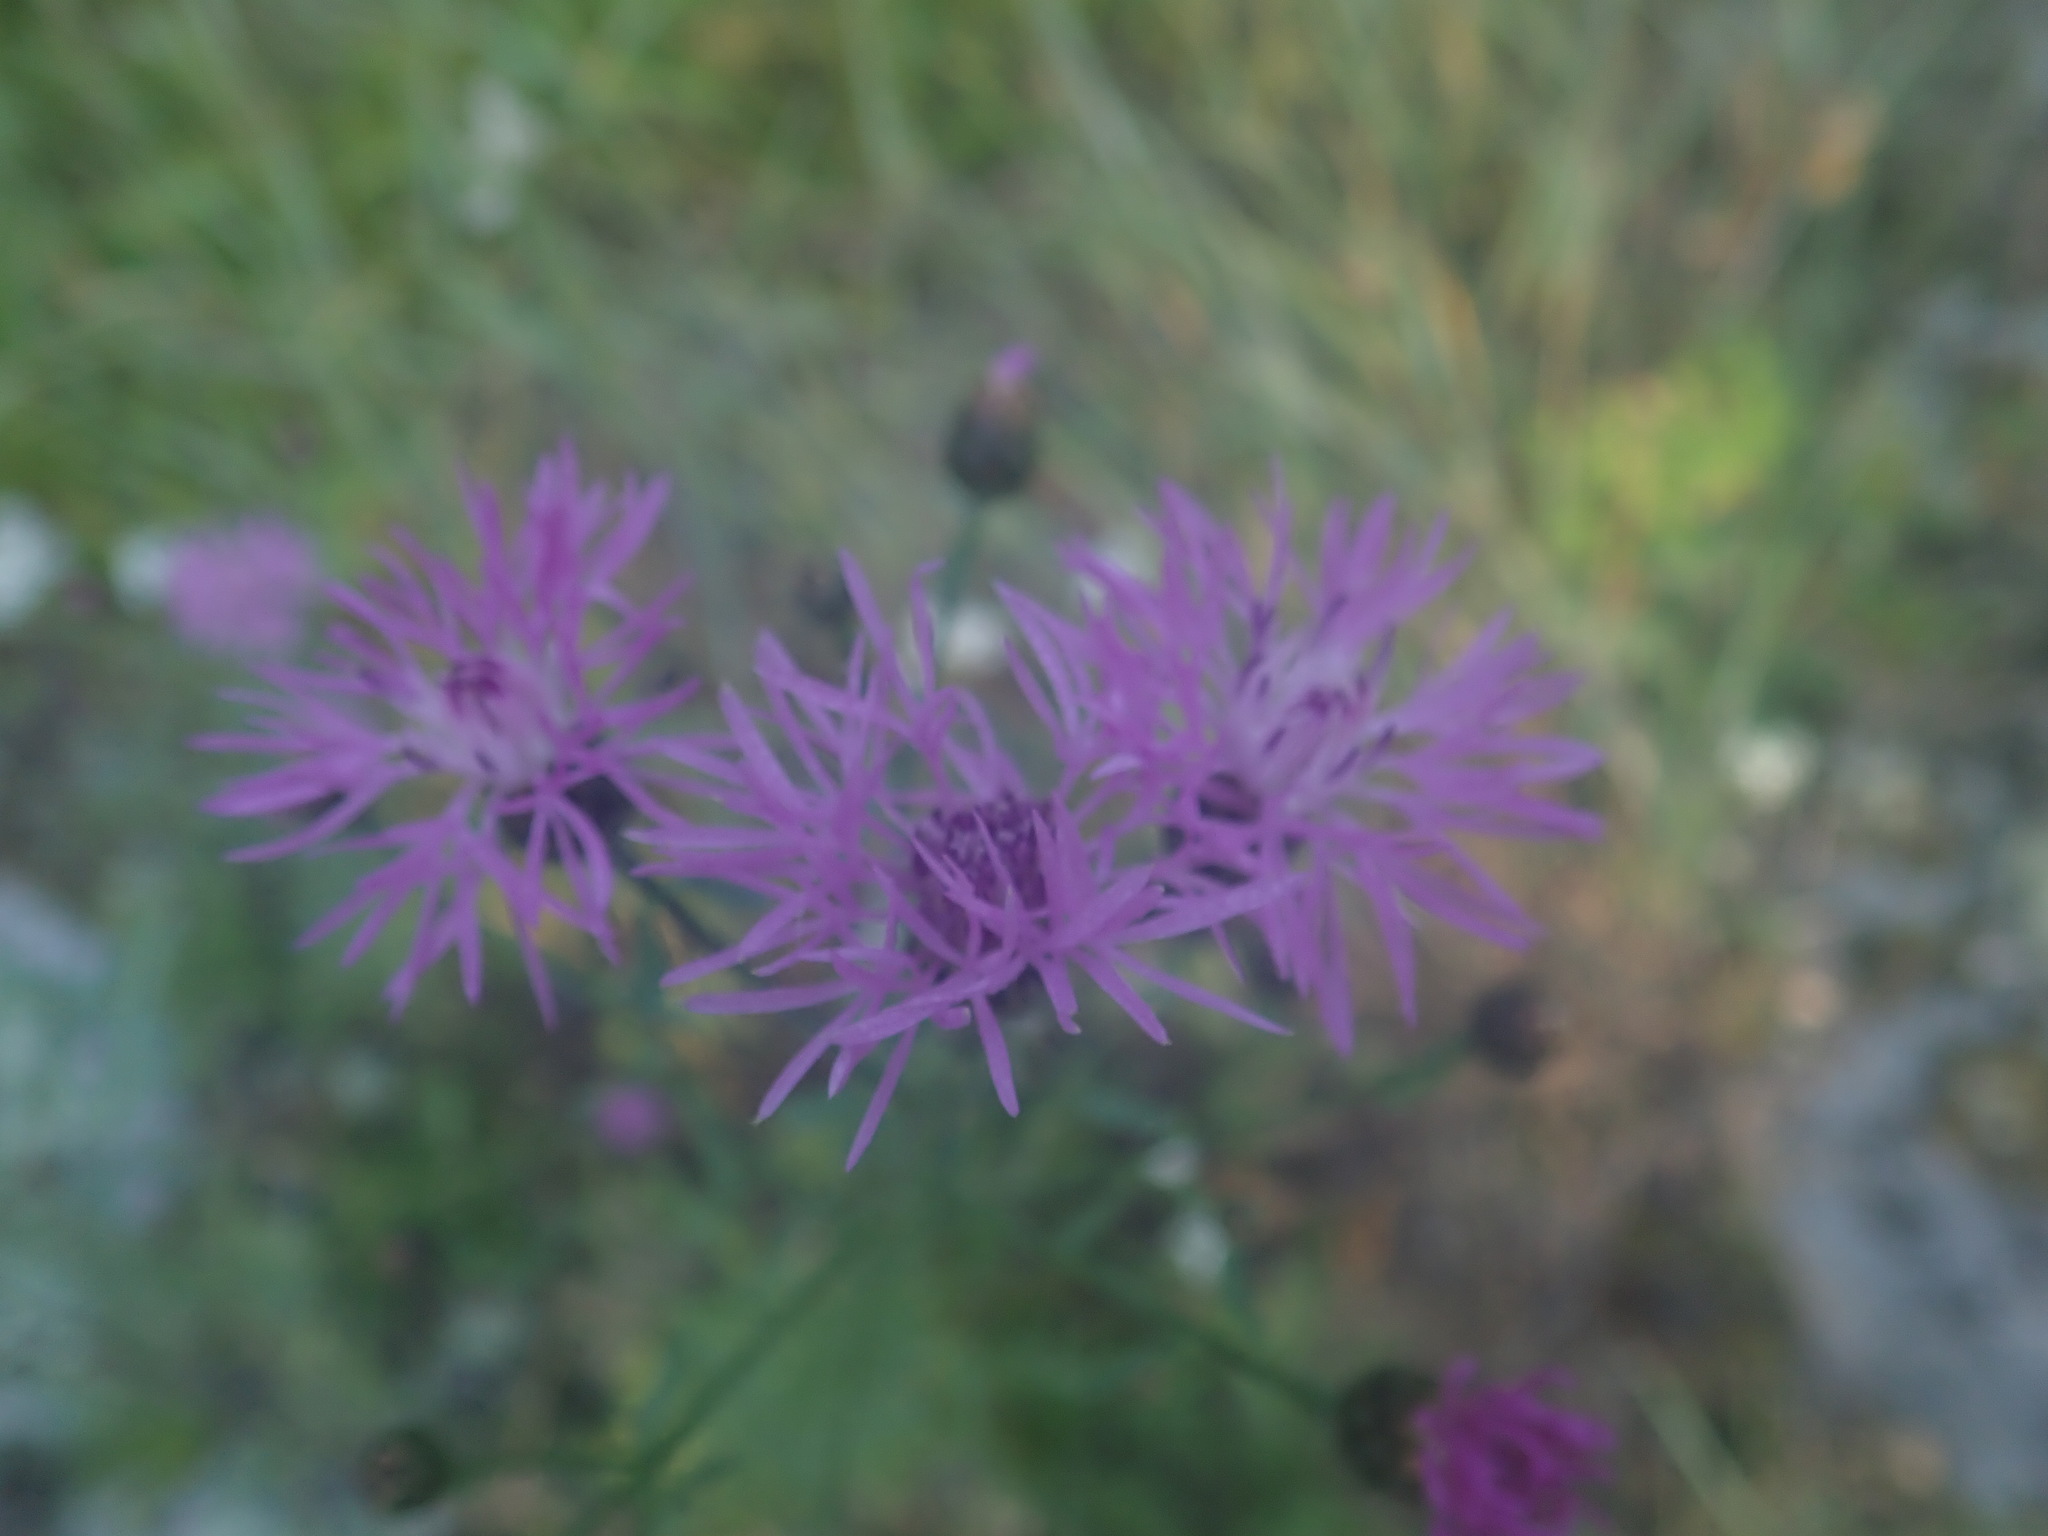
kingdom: Plantae
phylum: Tracheophyta
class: Magnoliopsida
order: Asterales
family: Asteraceae
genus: Centaurea
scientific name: Centaurea stoebe
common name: Spotted knapweed
